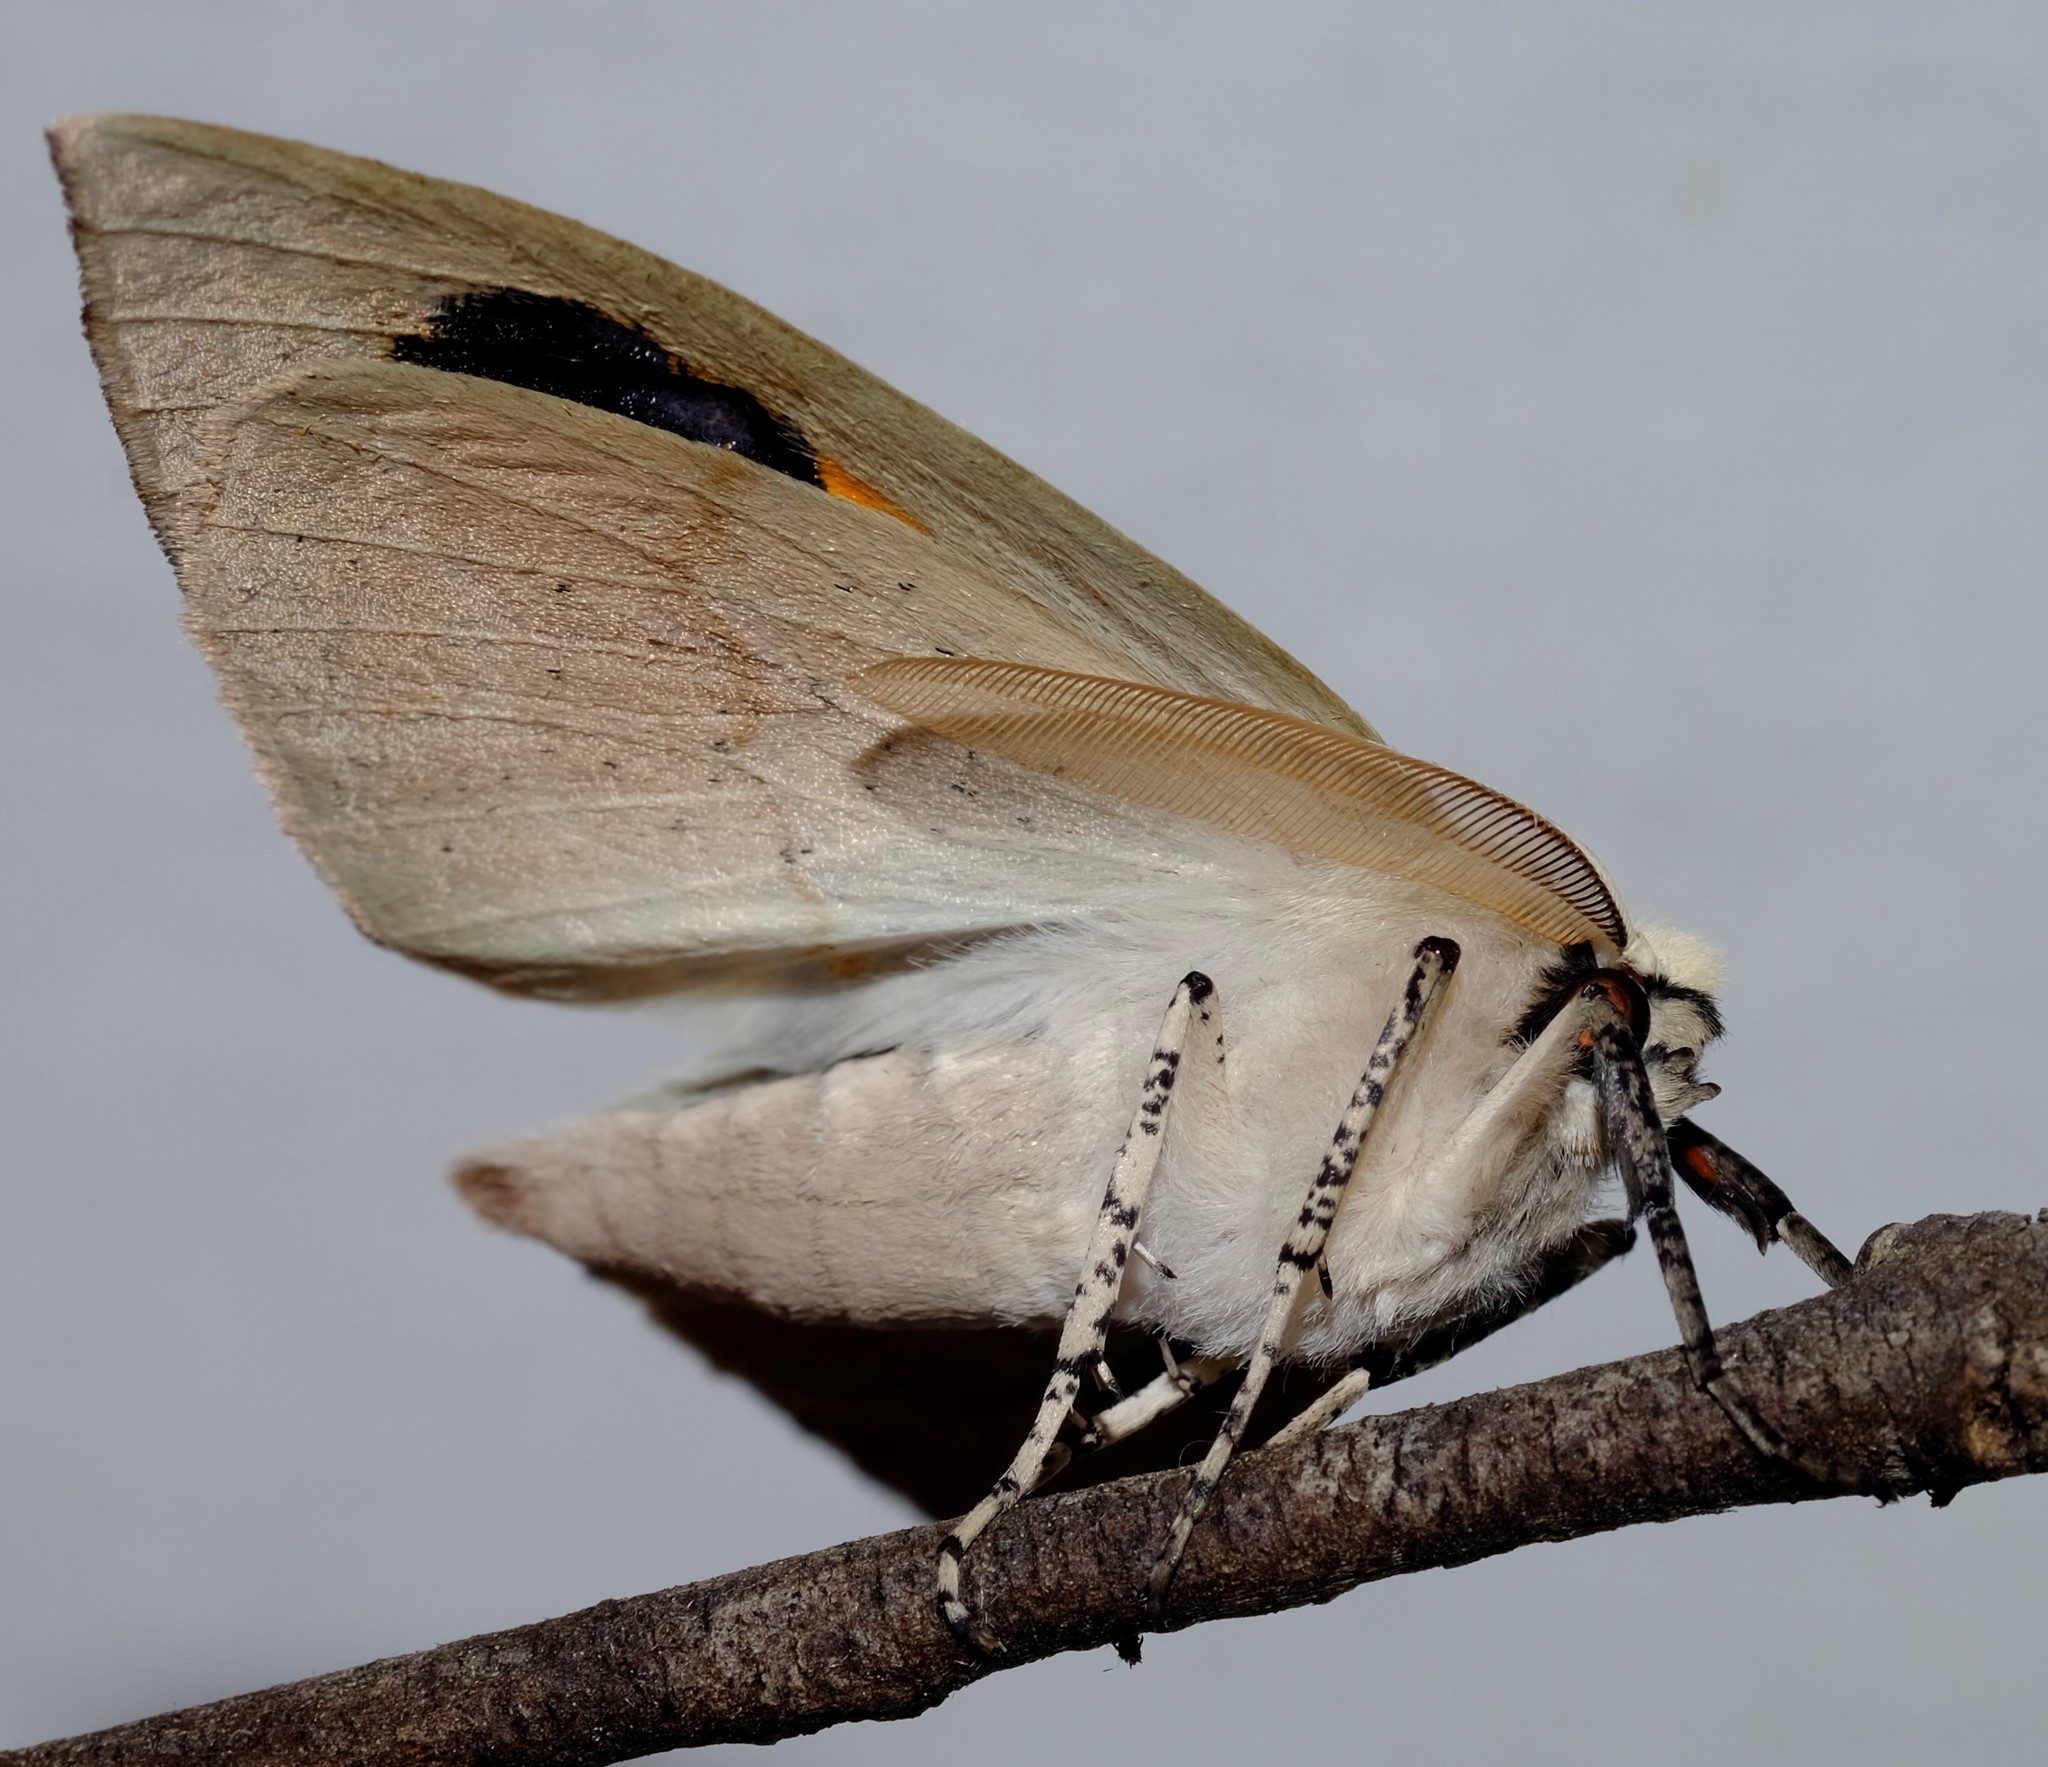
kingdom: Animalia
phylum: Arthropoda
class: Insecta
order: Lepidoptera
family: Geometridae
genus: Gastrophora
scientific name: Gastrophora henricaria
